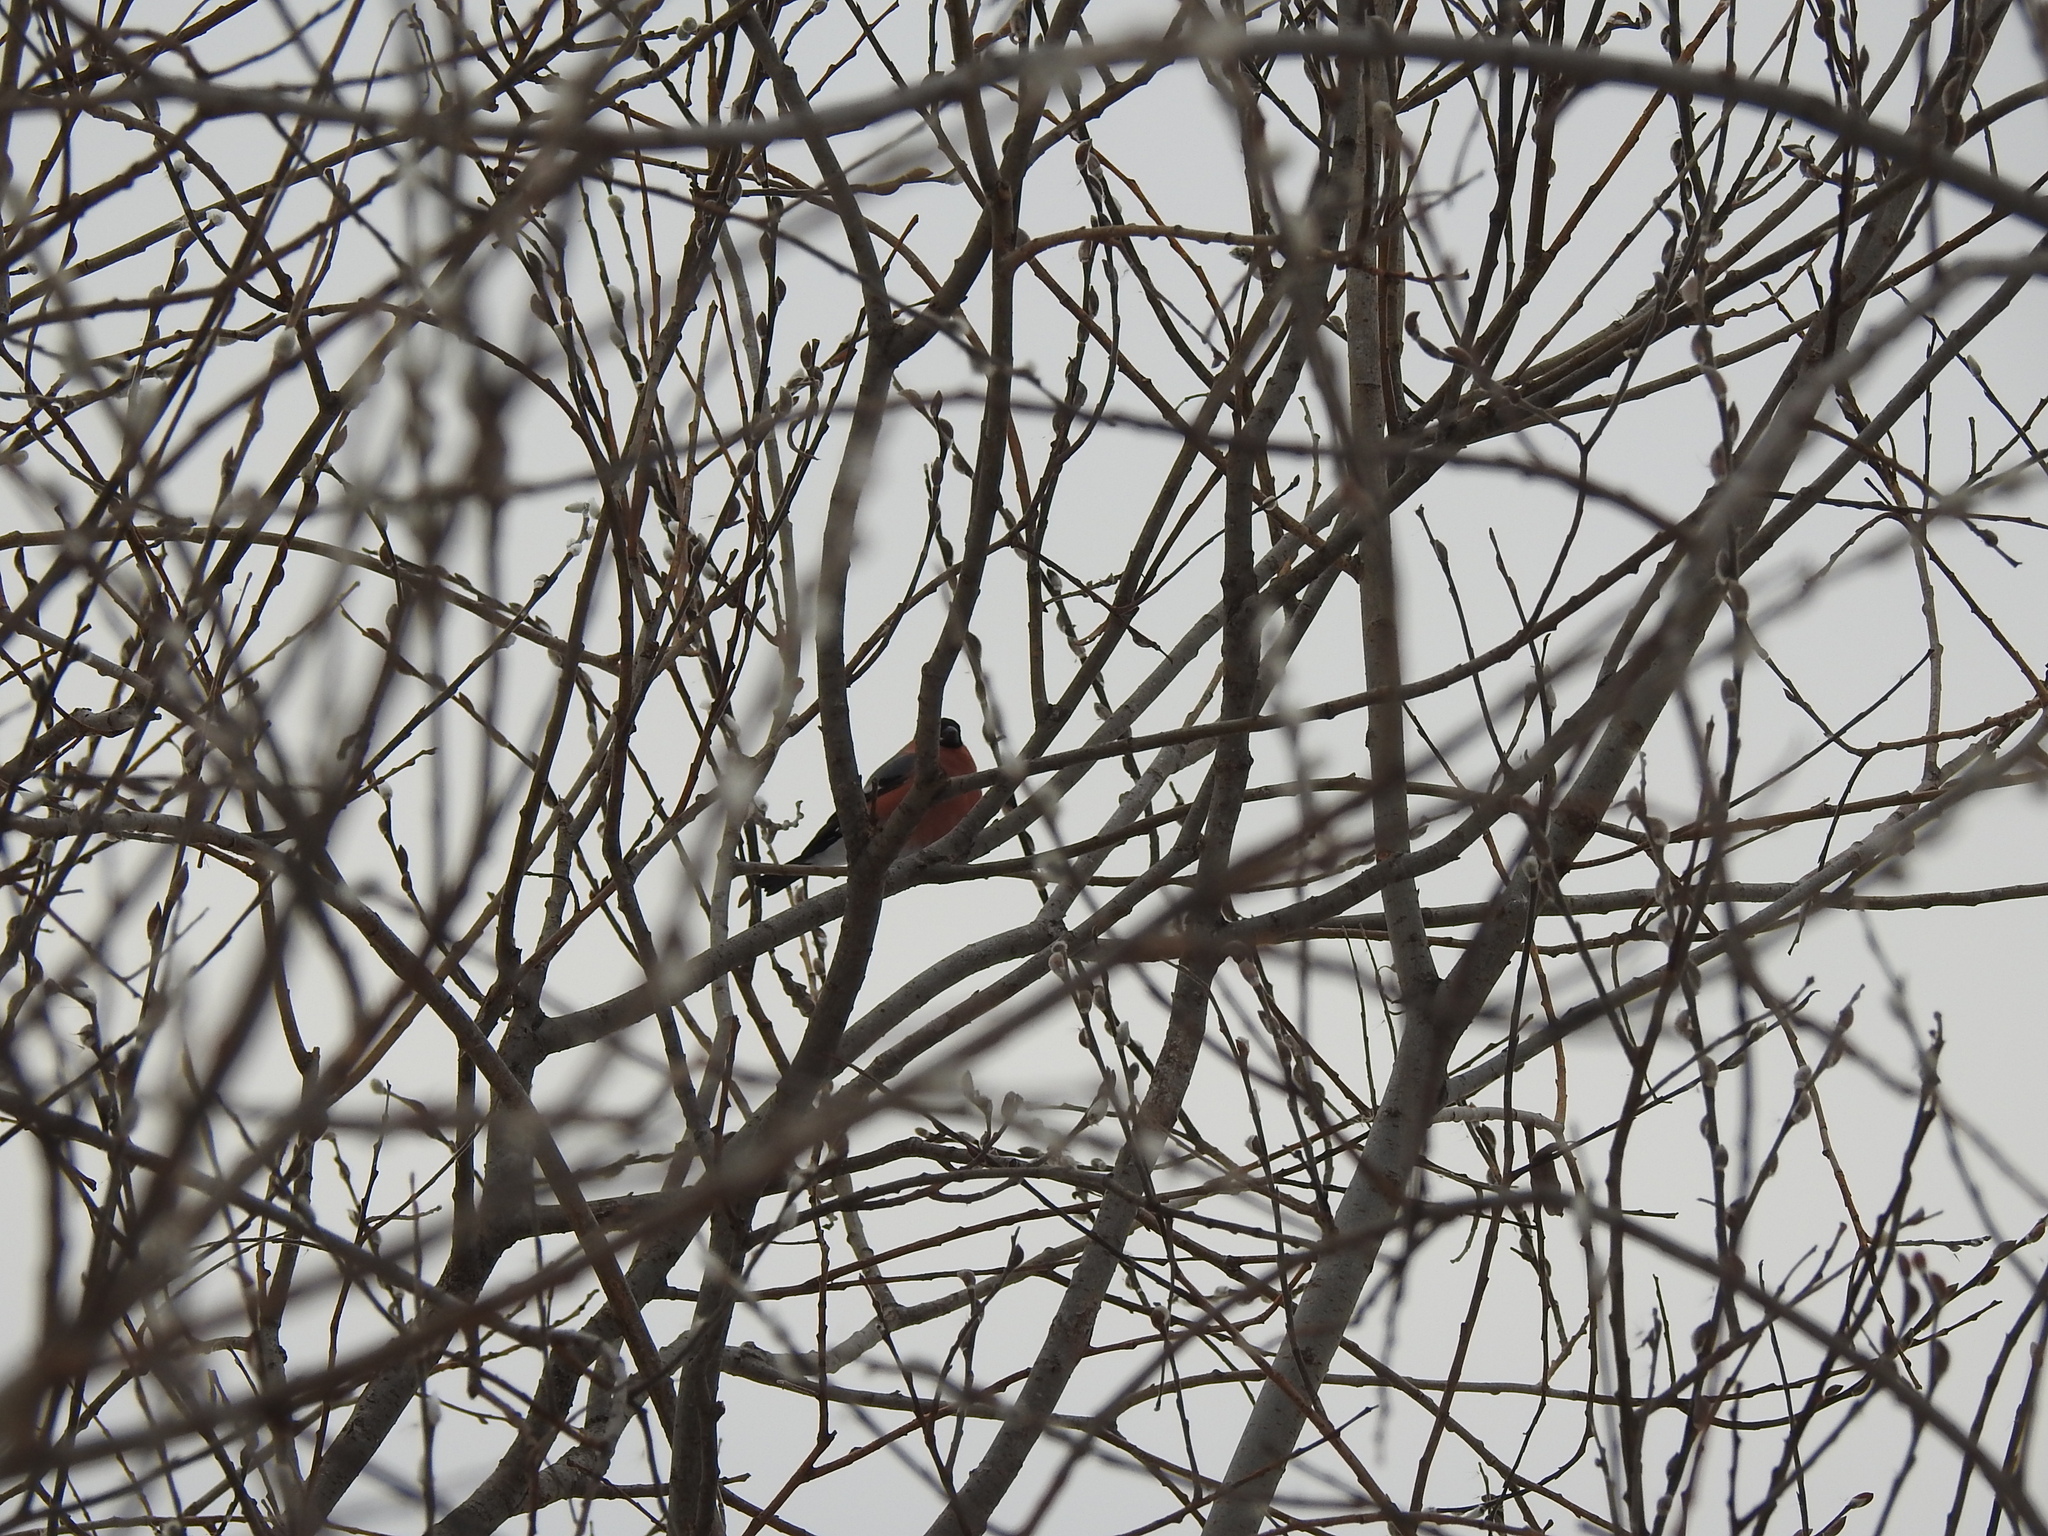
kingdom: Animalia
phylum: Chordata
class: Aves
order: Passeriformes
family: Fringillidae
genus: Pyrrhula
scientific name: Pyrrhula pyrrhula
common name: Eurasian bullfinch
